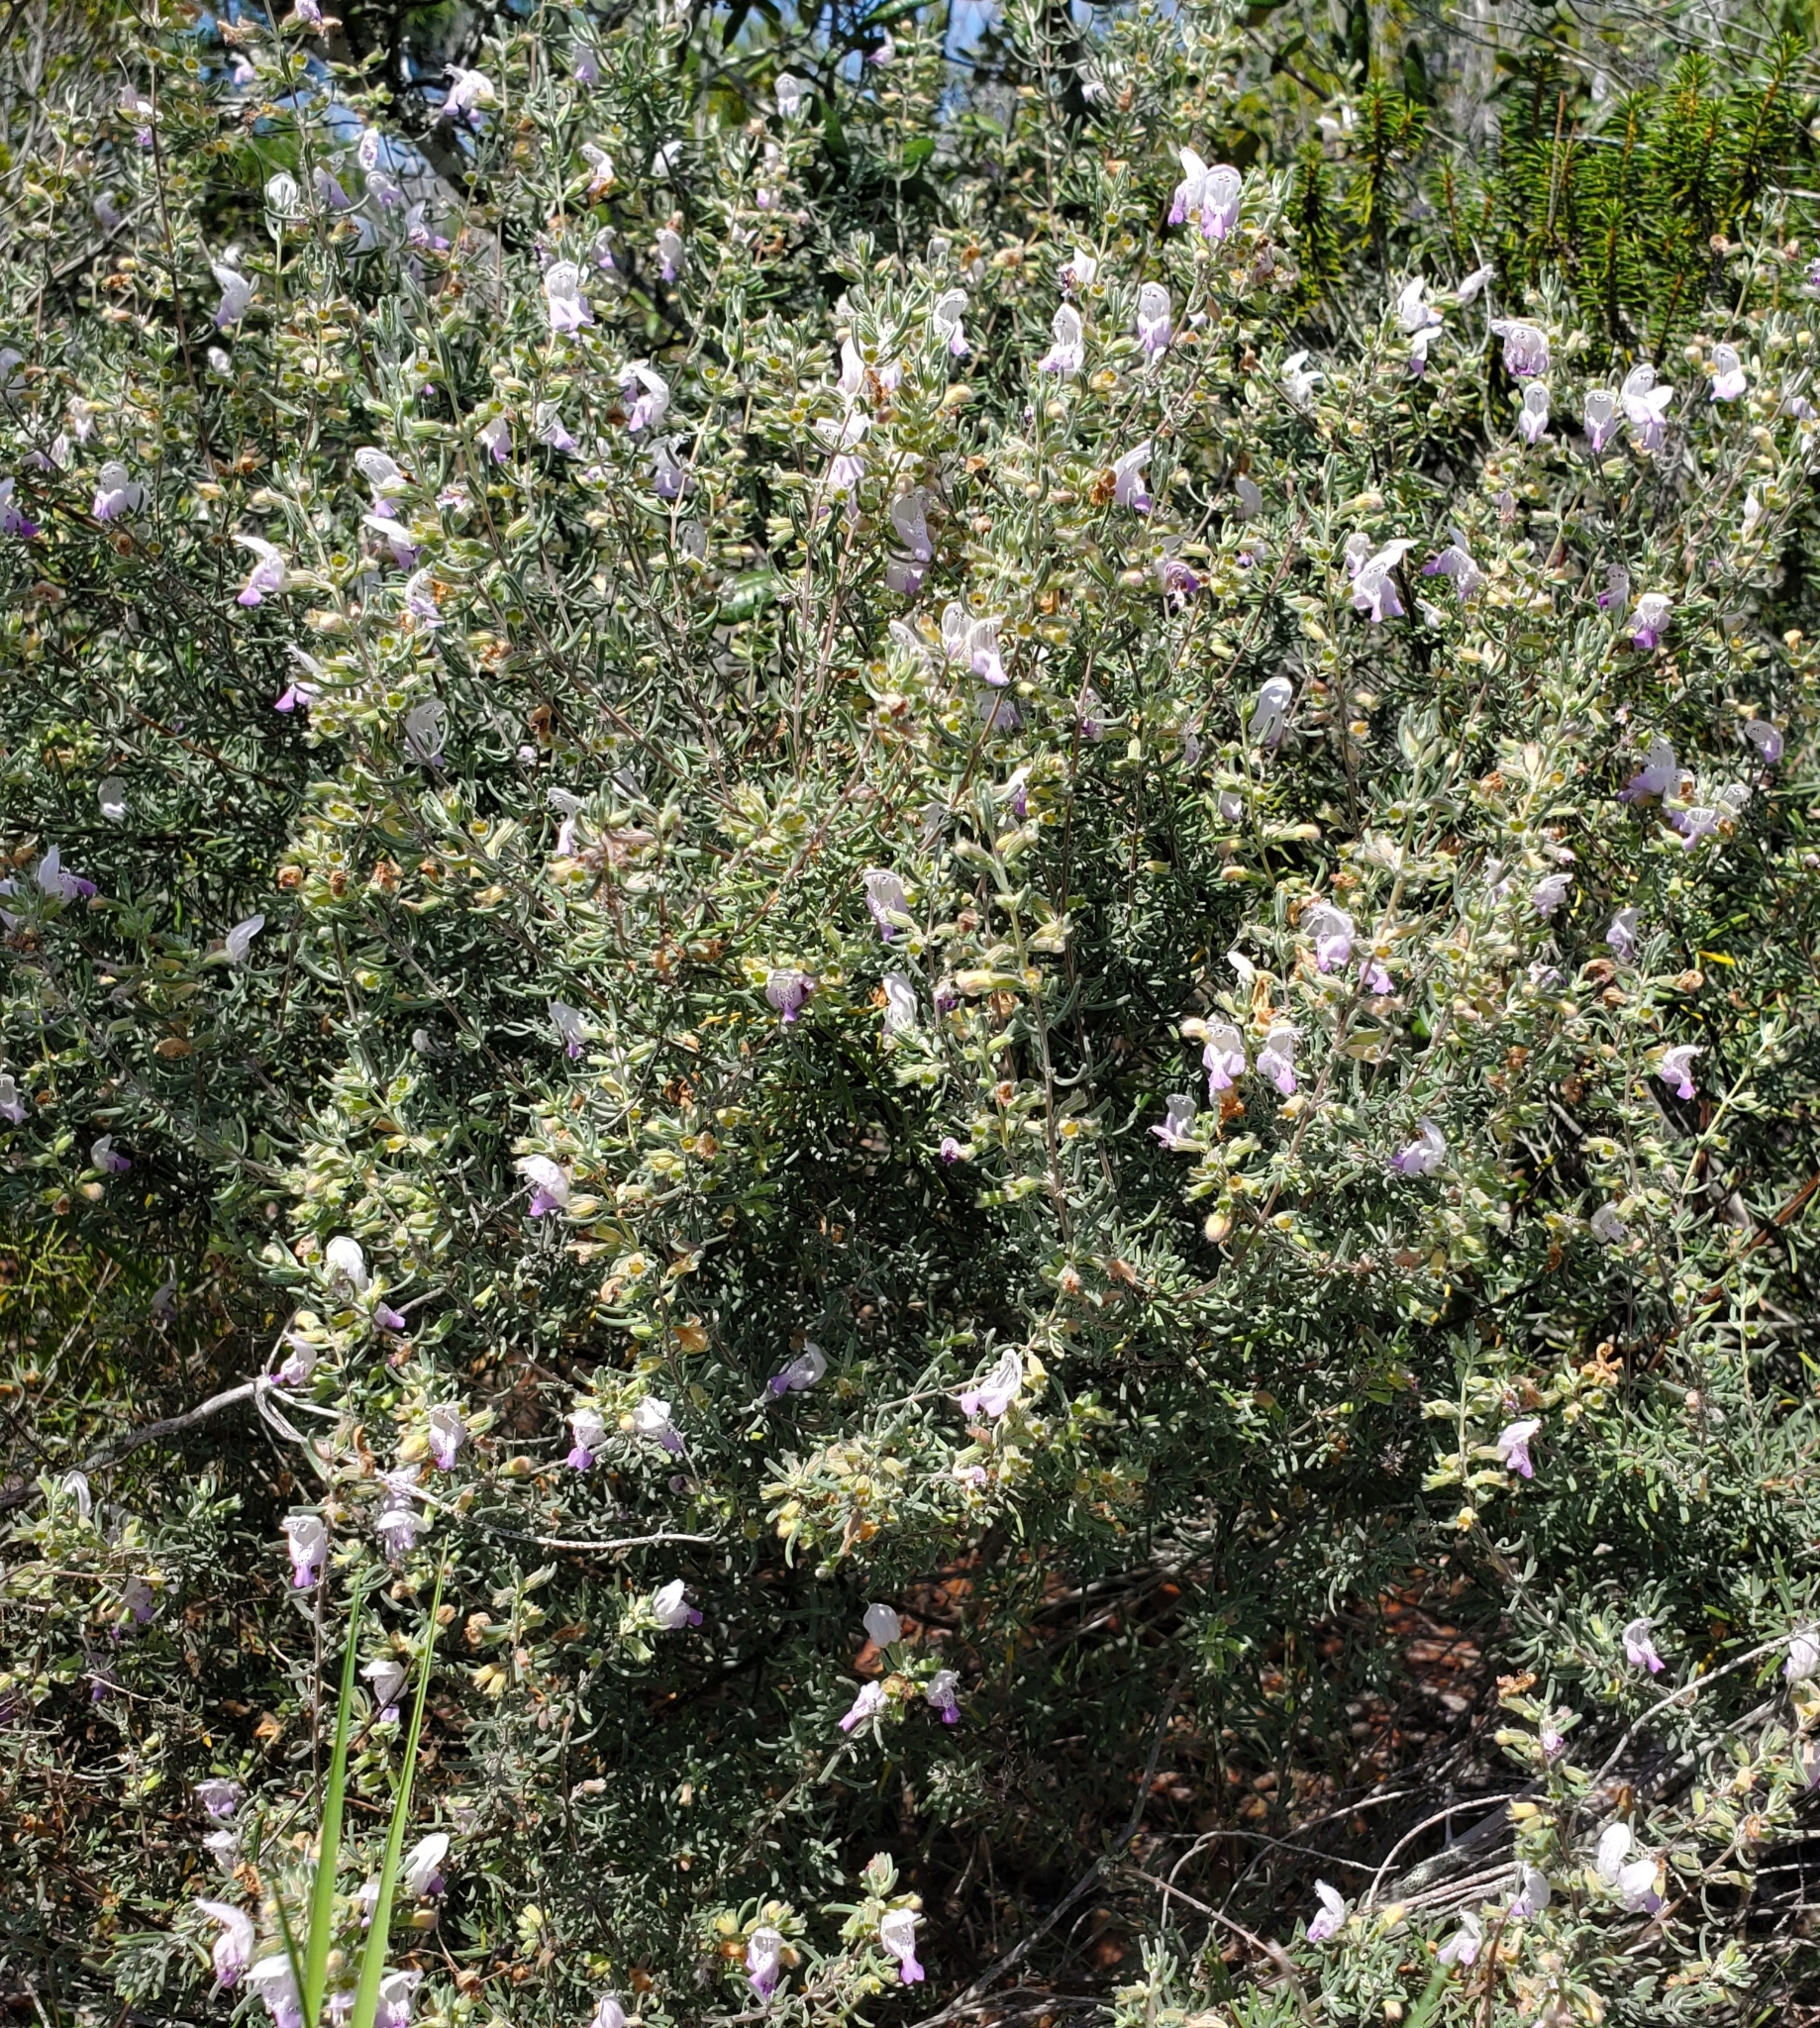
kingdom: Plantae
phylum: Tracheophyta
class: Magnoliopsida
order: Lamiales
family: Lamiaceae
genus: Conradina
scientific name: Conradina canescens
